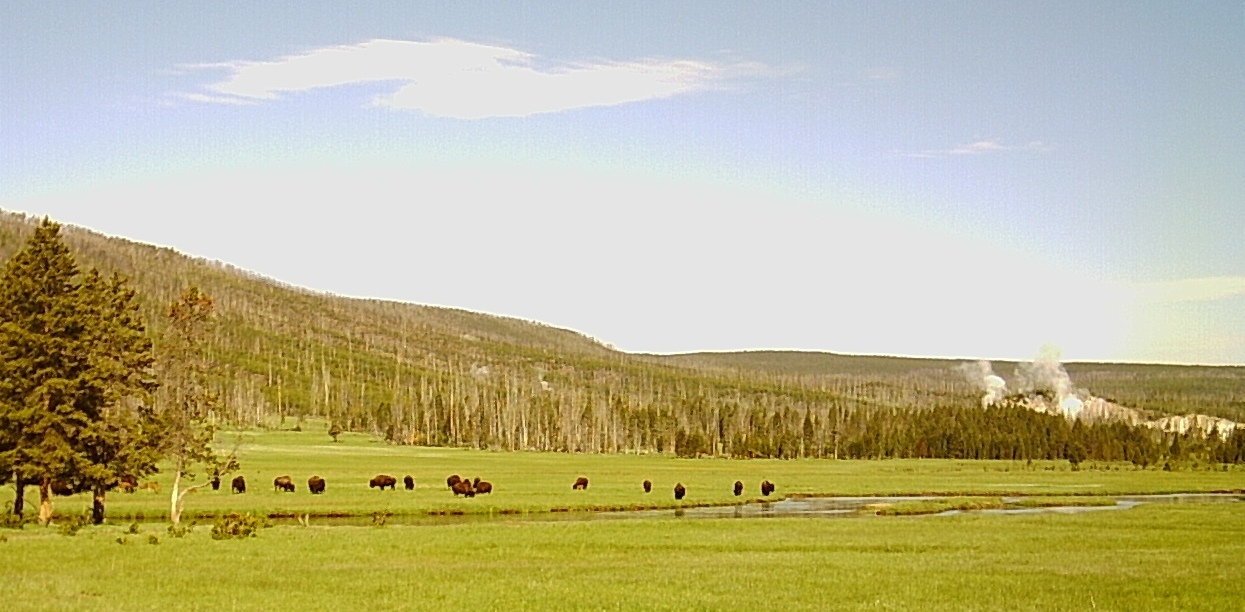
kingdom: Animalia
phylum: Chordata
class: Mammalia
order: Artiodactyla
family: Bovidae
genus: Bison
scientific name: Bison bison
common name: American bison
